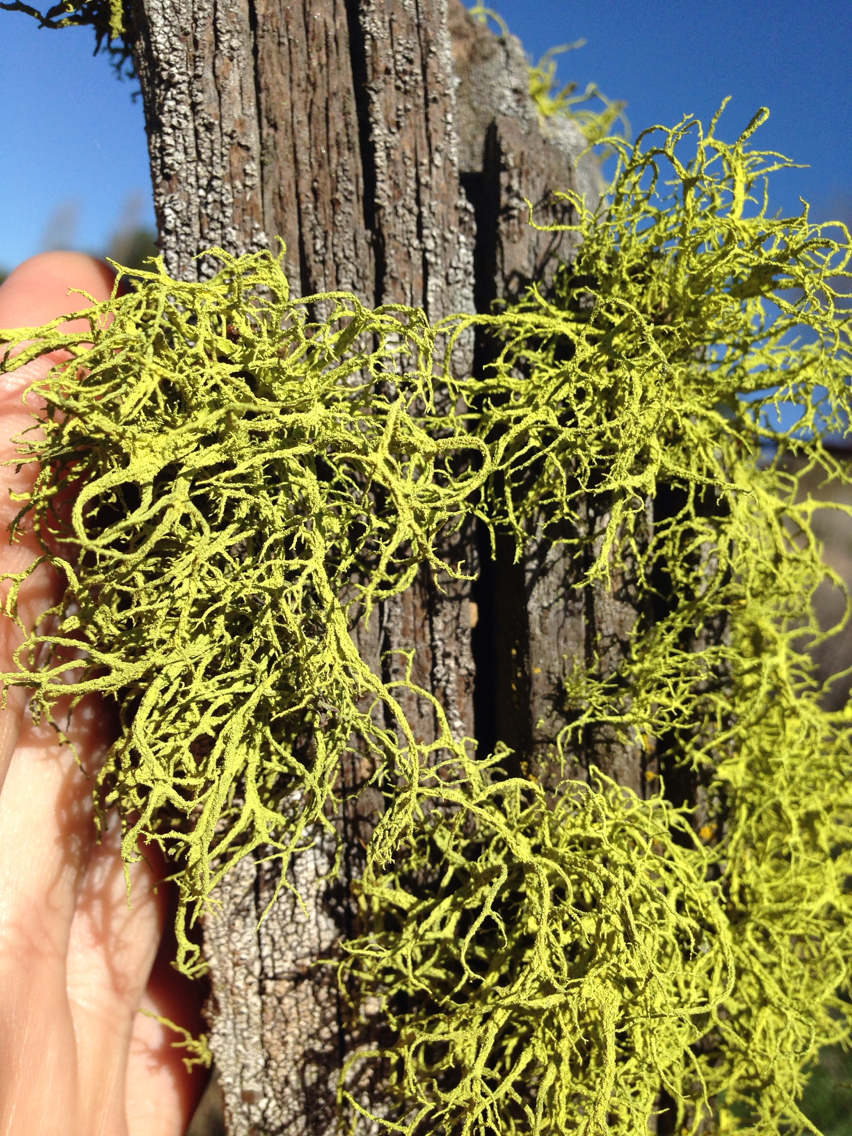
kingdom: Fungi
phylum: Ascomycota
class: Lecanoromycetes
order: Lecanorales
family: Parmeliaceae
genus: Letharia
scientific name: Letharia vulpina
